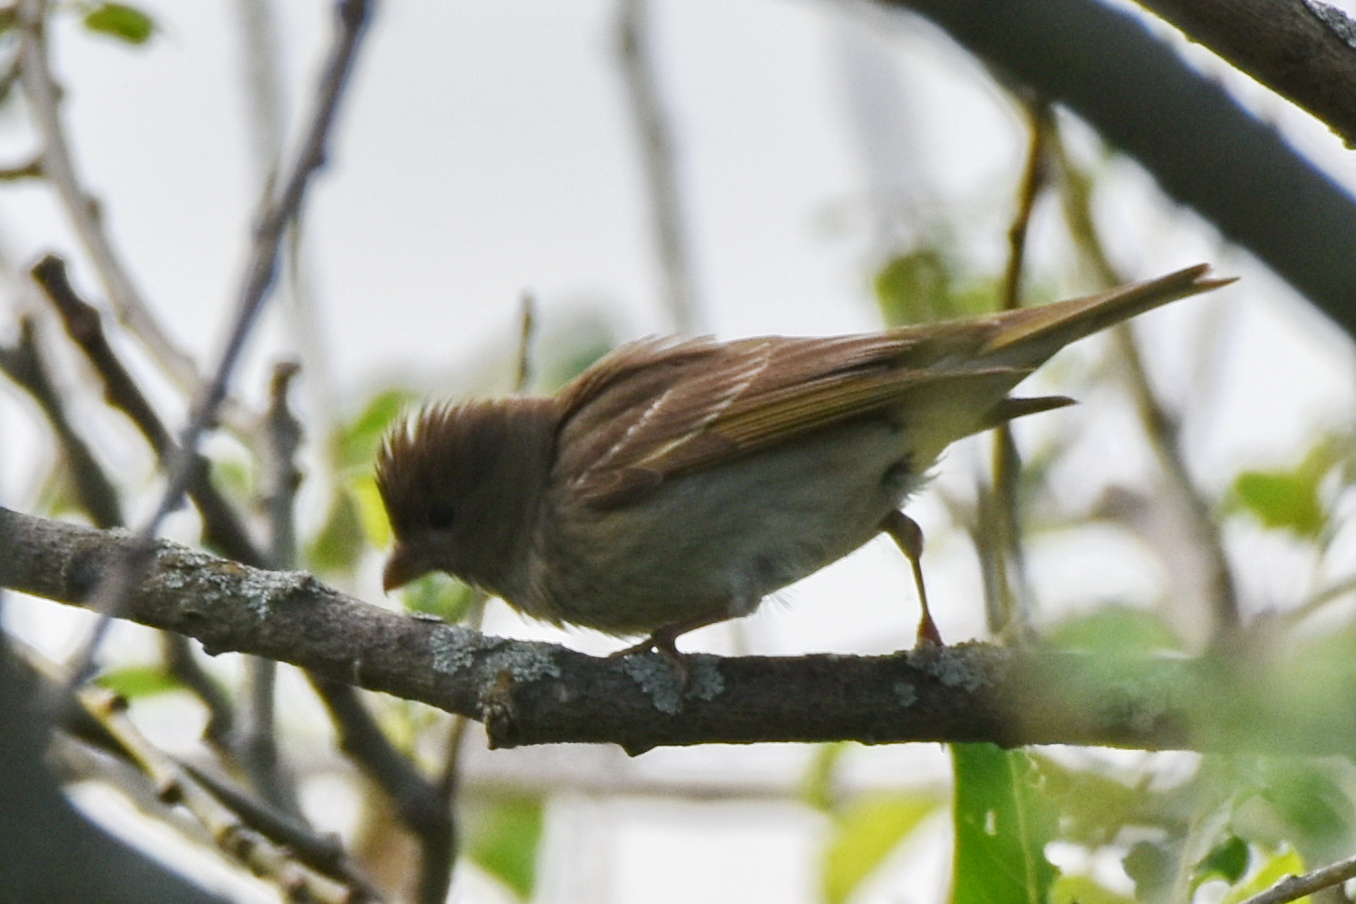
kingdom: Animalia
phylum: Chordata
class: Aves
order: Passeriformes
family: Fringillidae
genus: Carpodacus
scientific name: Carpodacus erythrinus
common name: Common rosefinch
